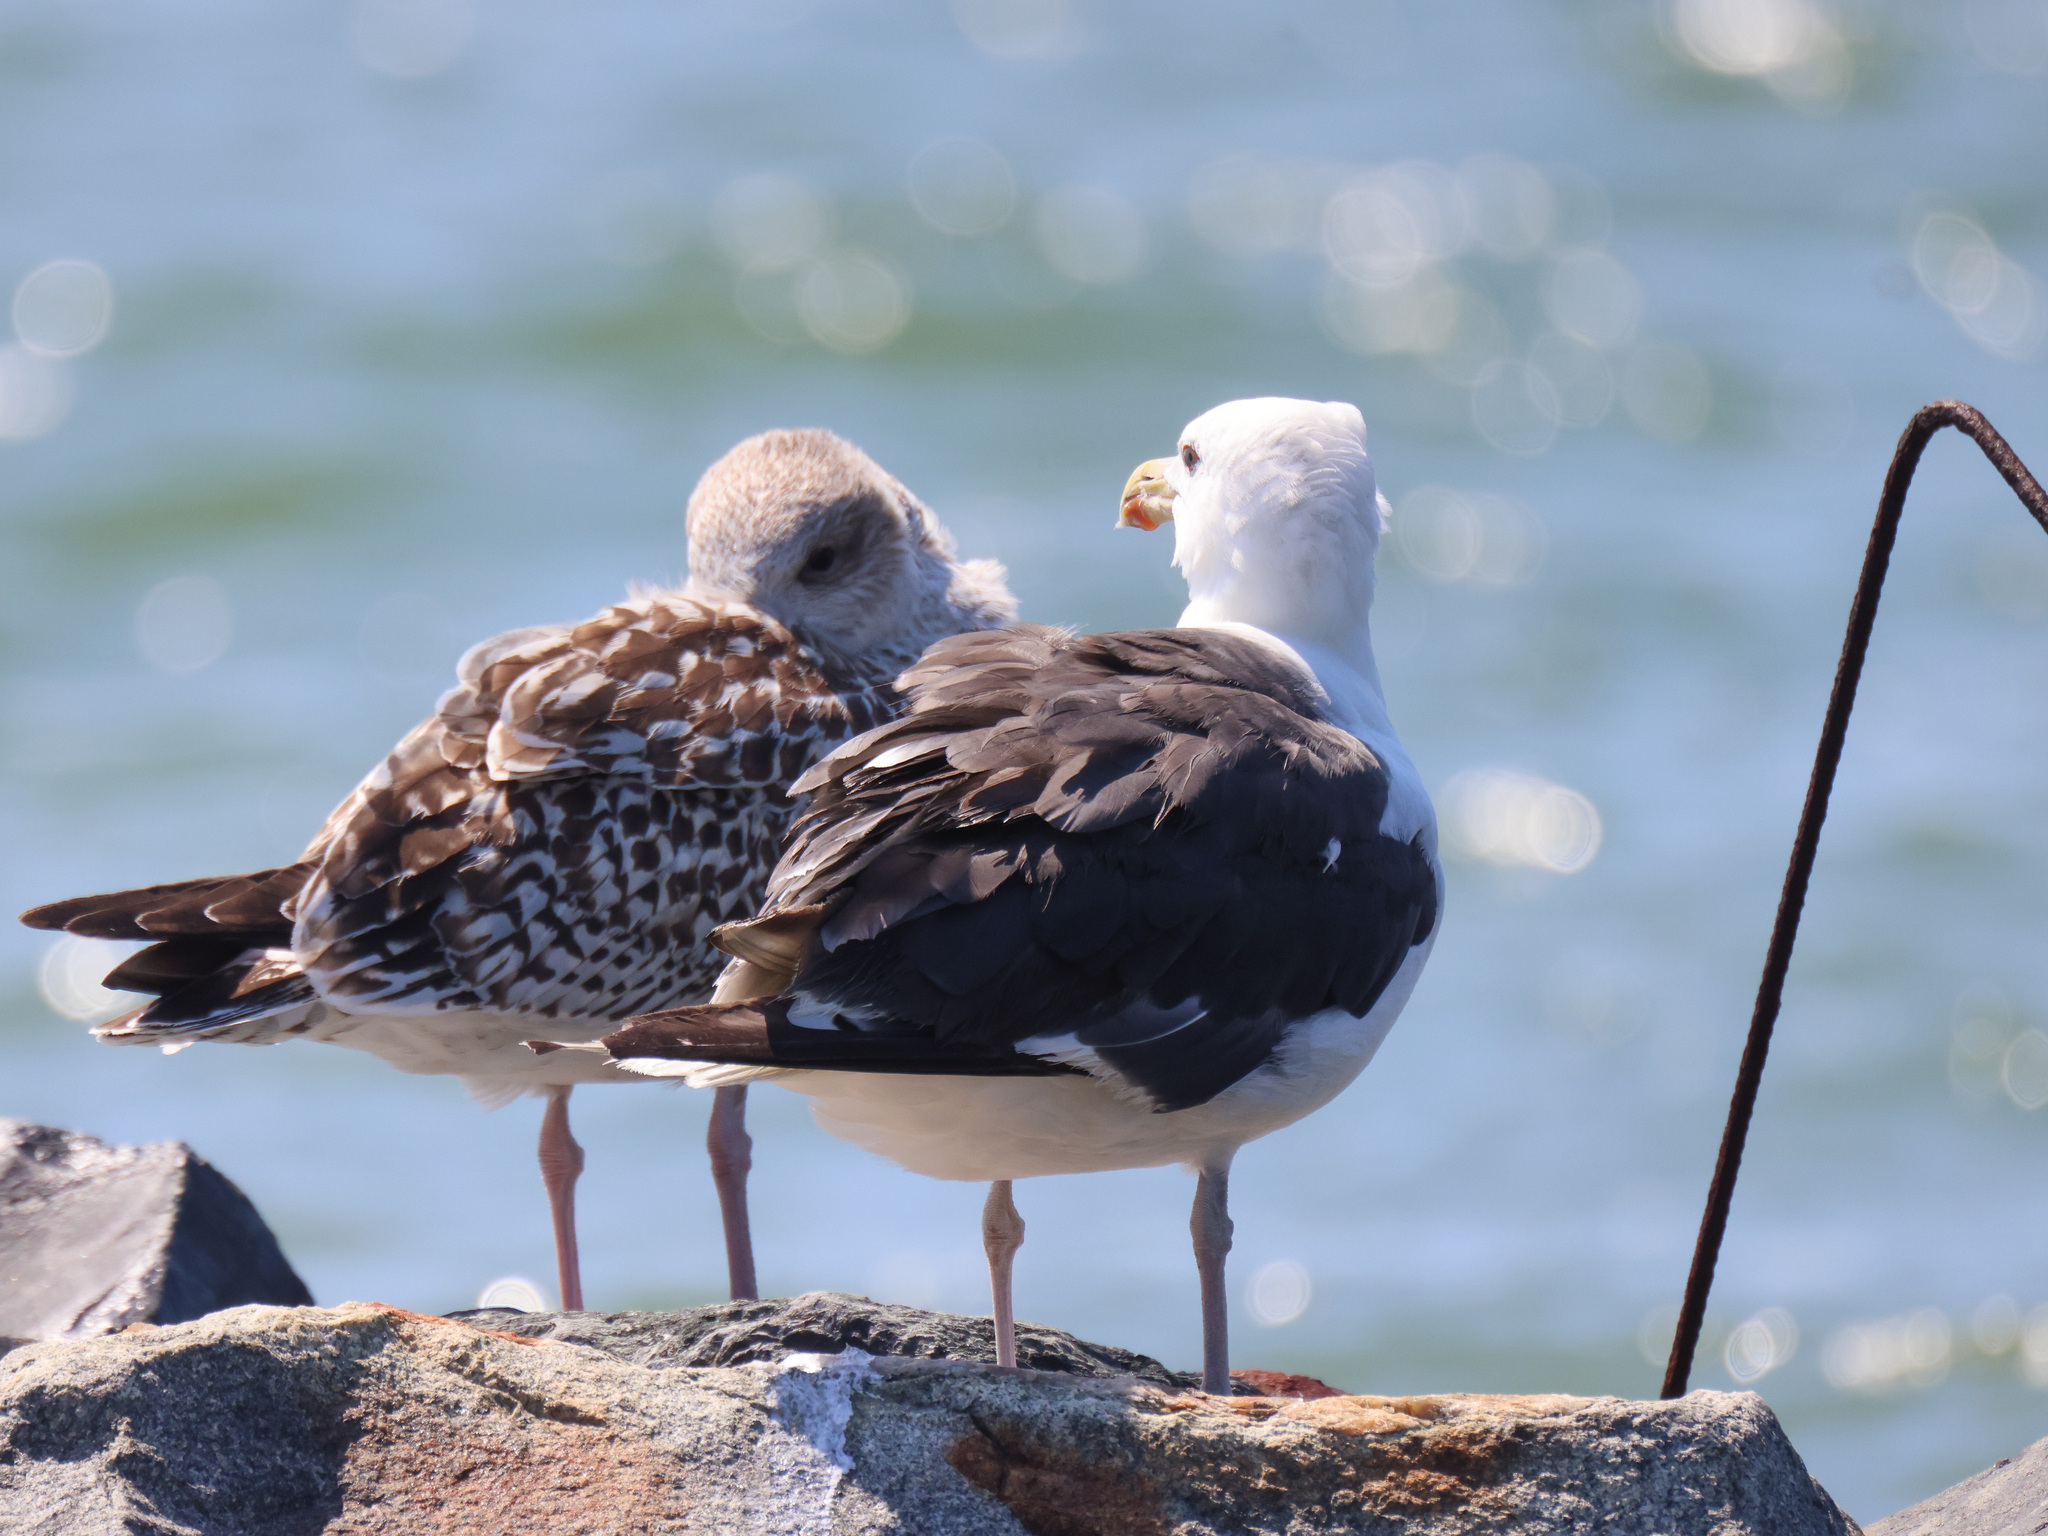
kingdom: Animalia
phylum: Chordata
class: Aves
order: Charadriiformes
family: Laridae
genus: Larus
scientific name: Larus marinus
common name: Great black-backed gull
